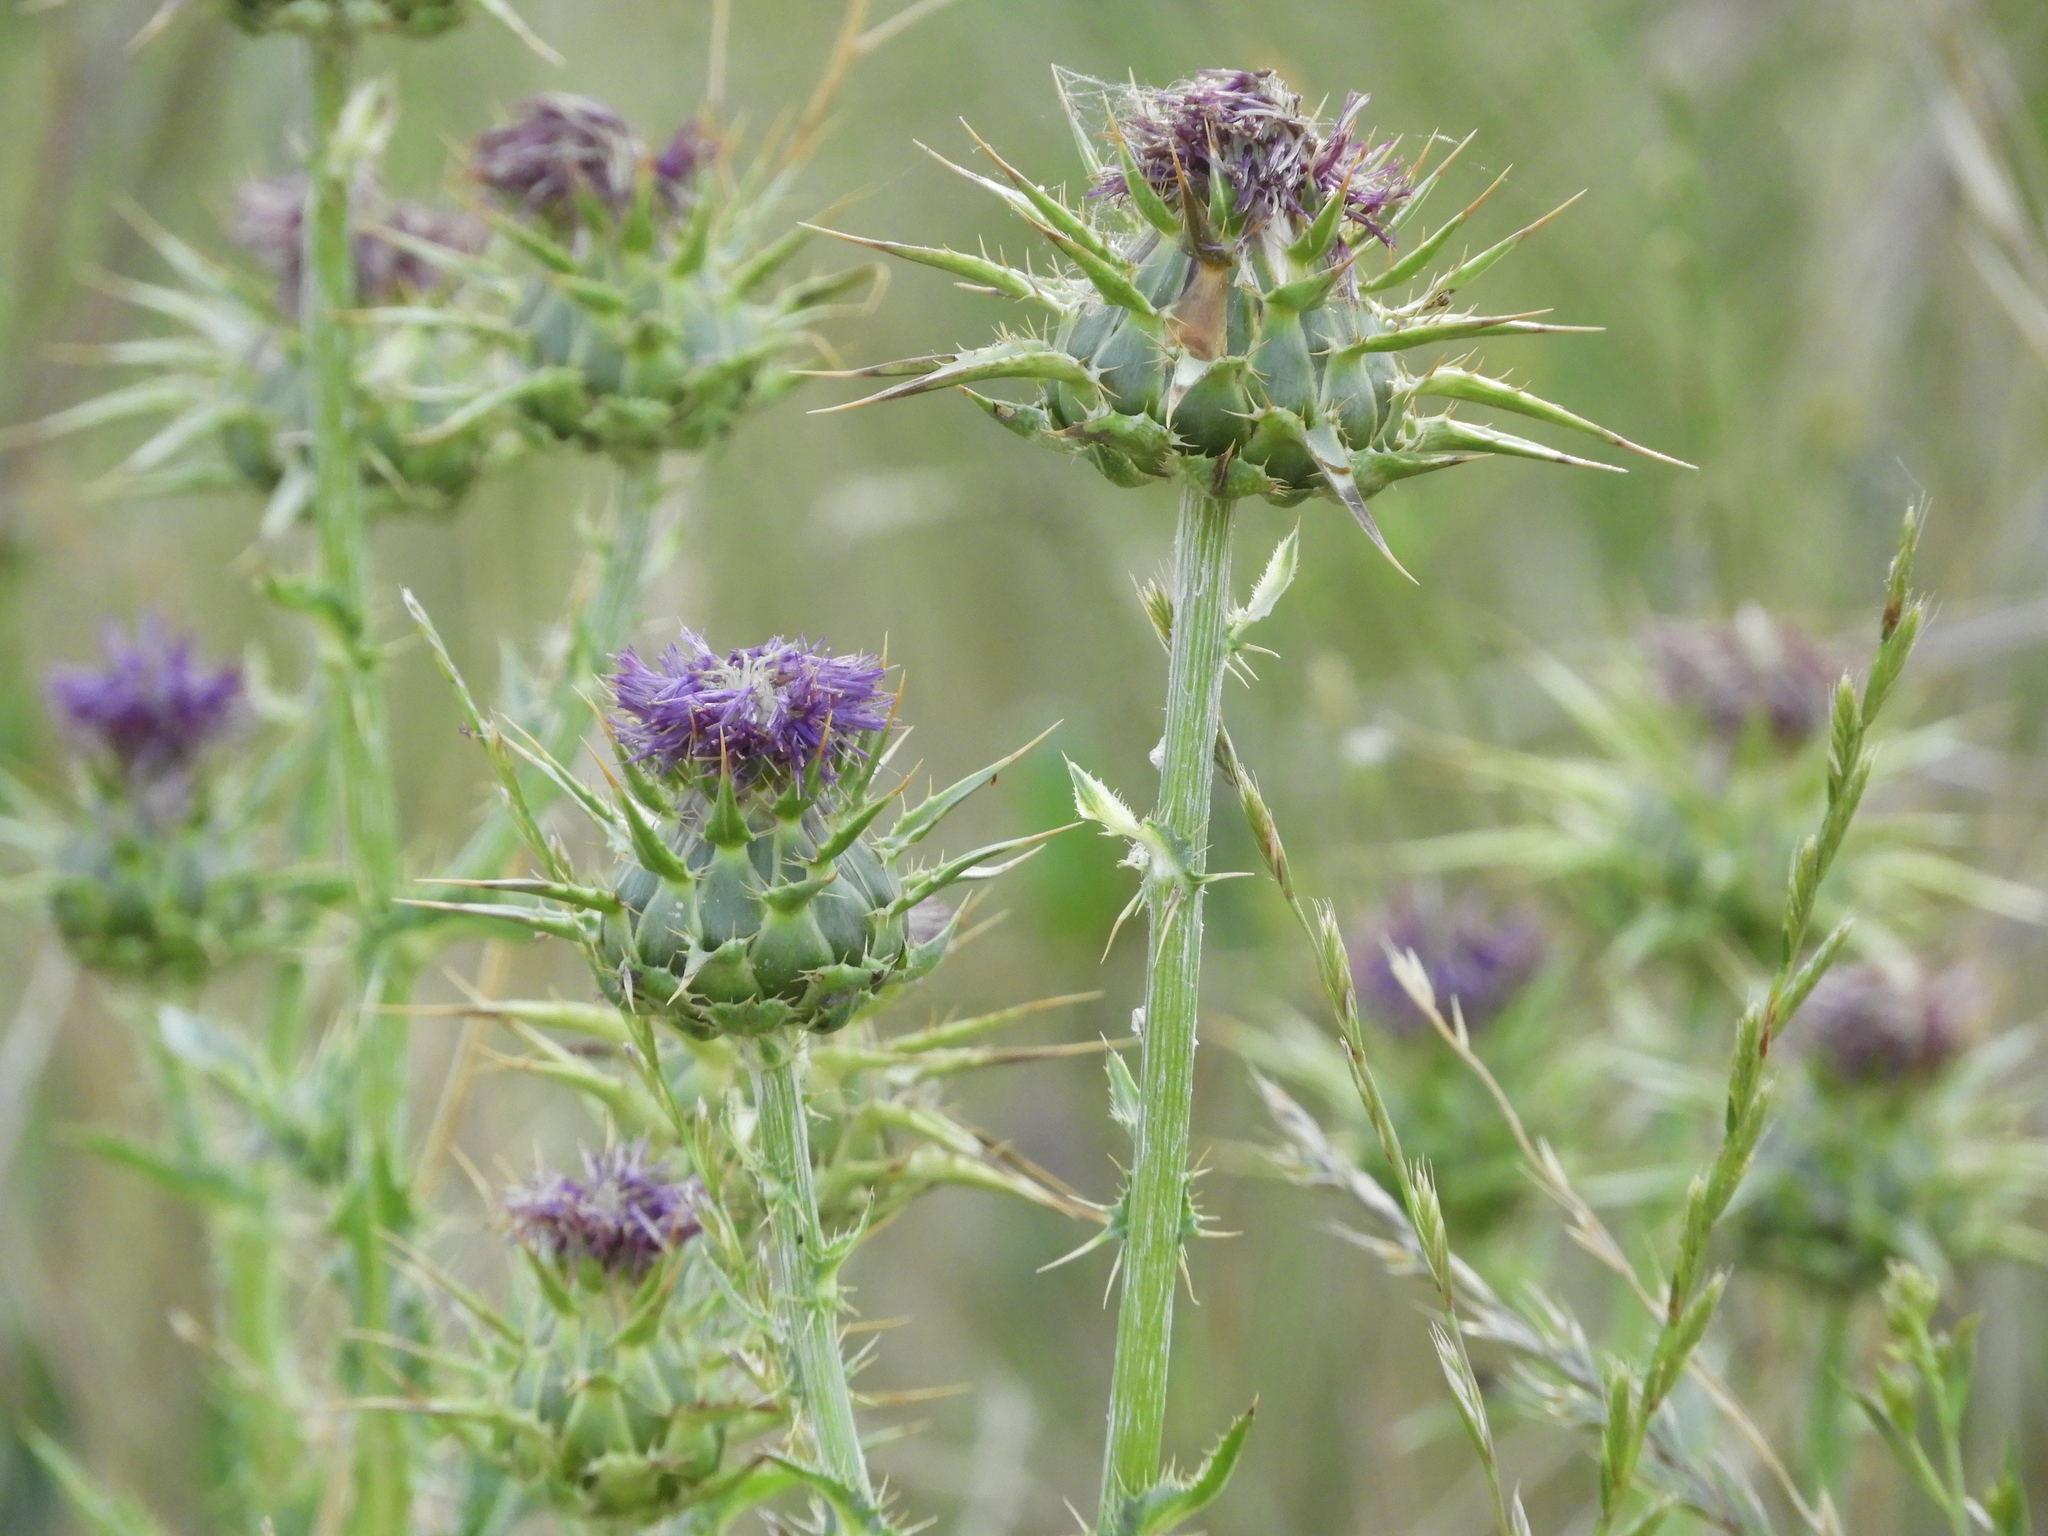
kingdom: Plantae
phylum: Tracheophyta
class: Magnoliopsida
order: Asterales
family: Asteraceae
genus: Silybum
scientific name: Silybum marianum
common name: Milk thistle
